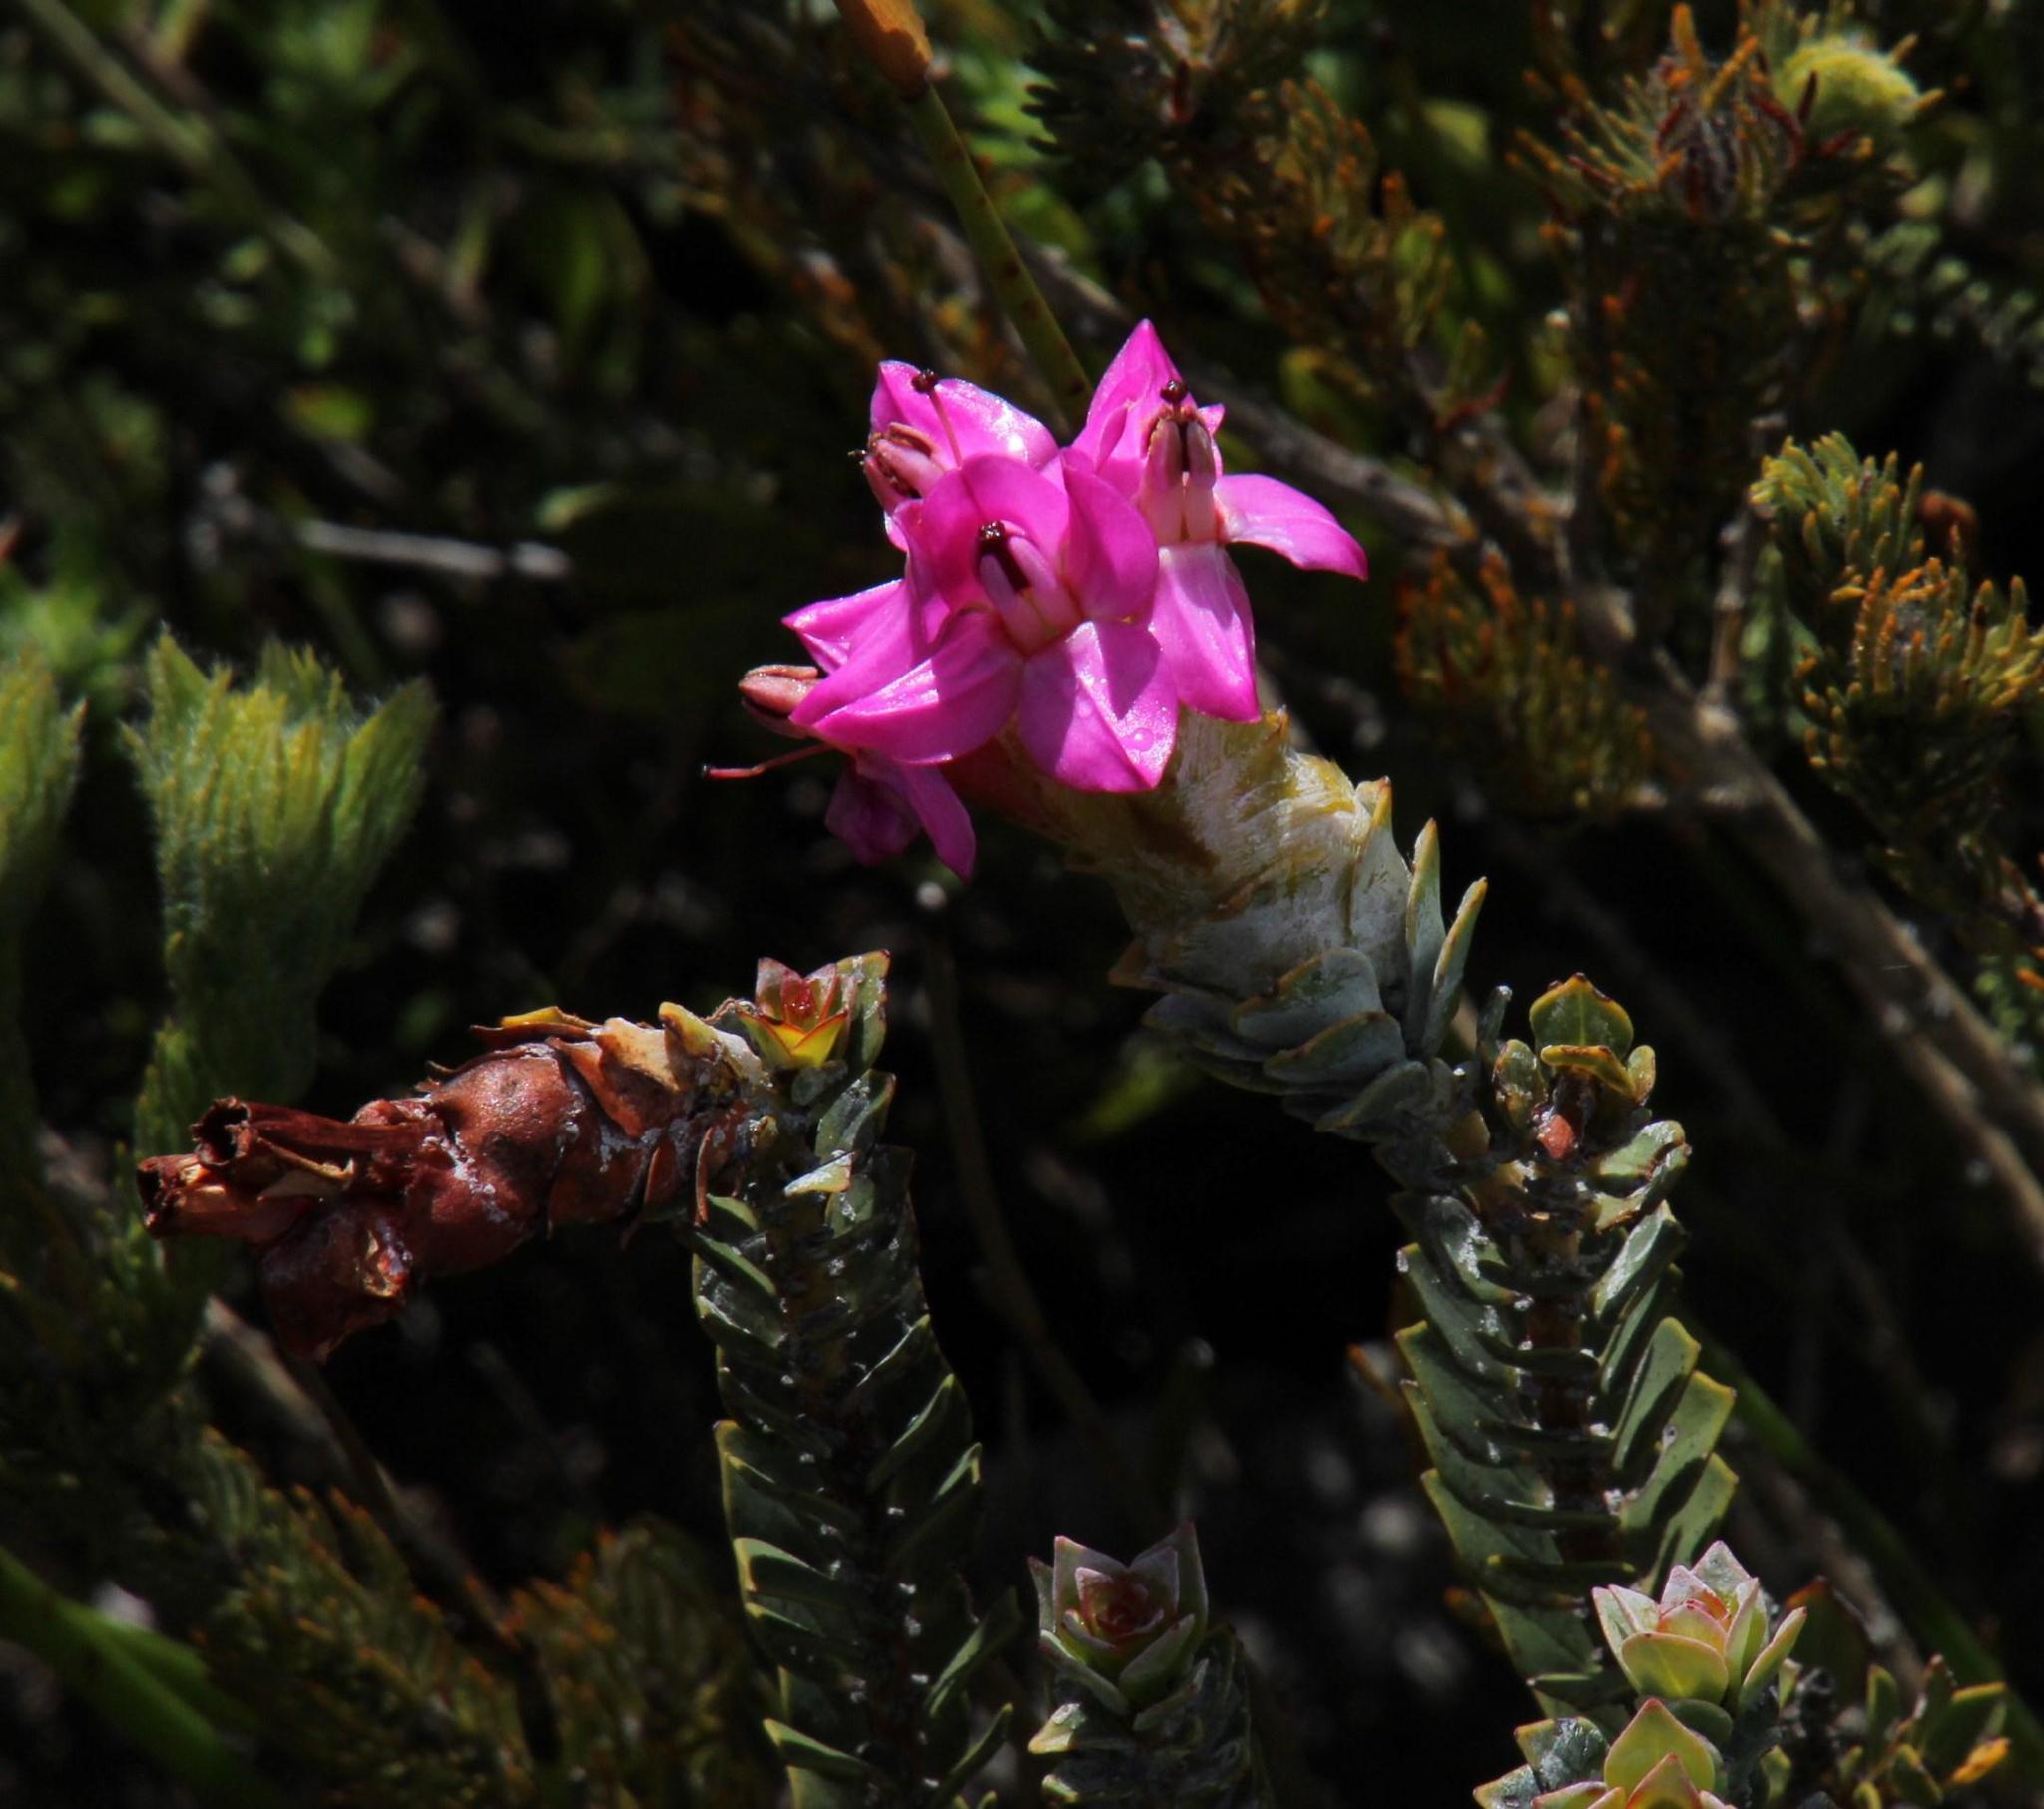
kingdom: Plantae
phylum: Tracheophyta
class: Magnoliopsida
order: Myrtales
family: Penaeaceae
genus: Saltera
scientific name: Saltera sarcocolla
